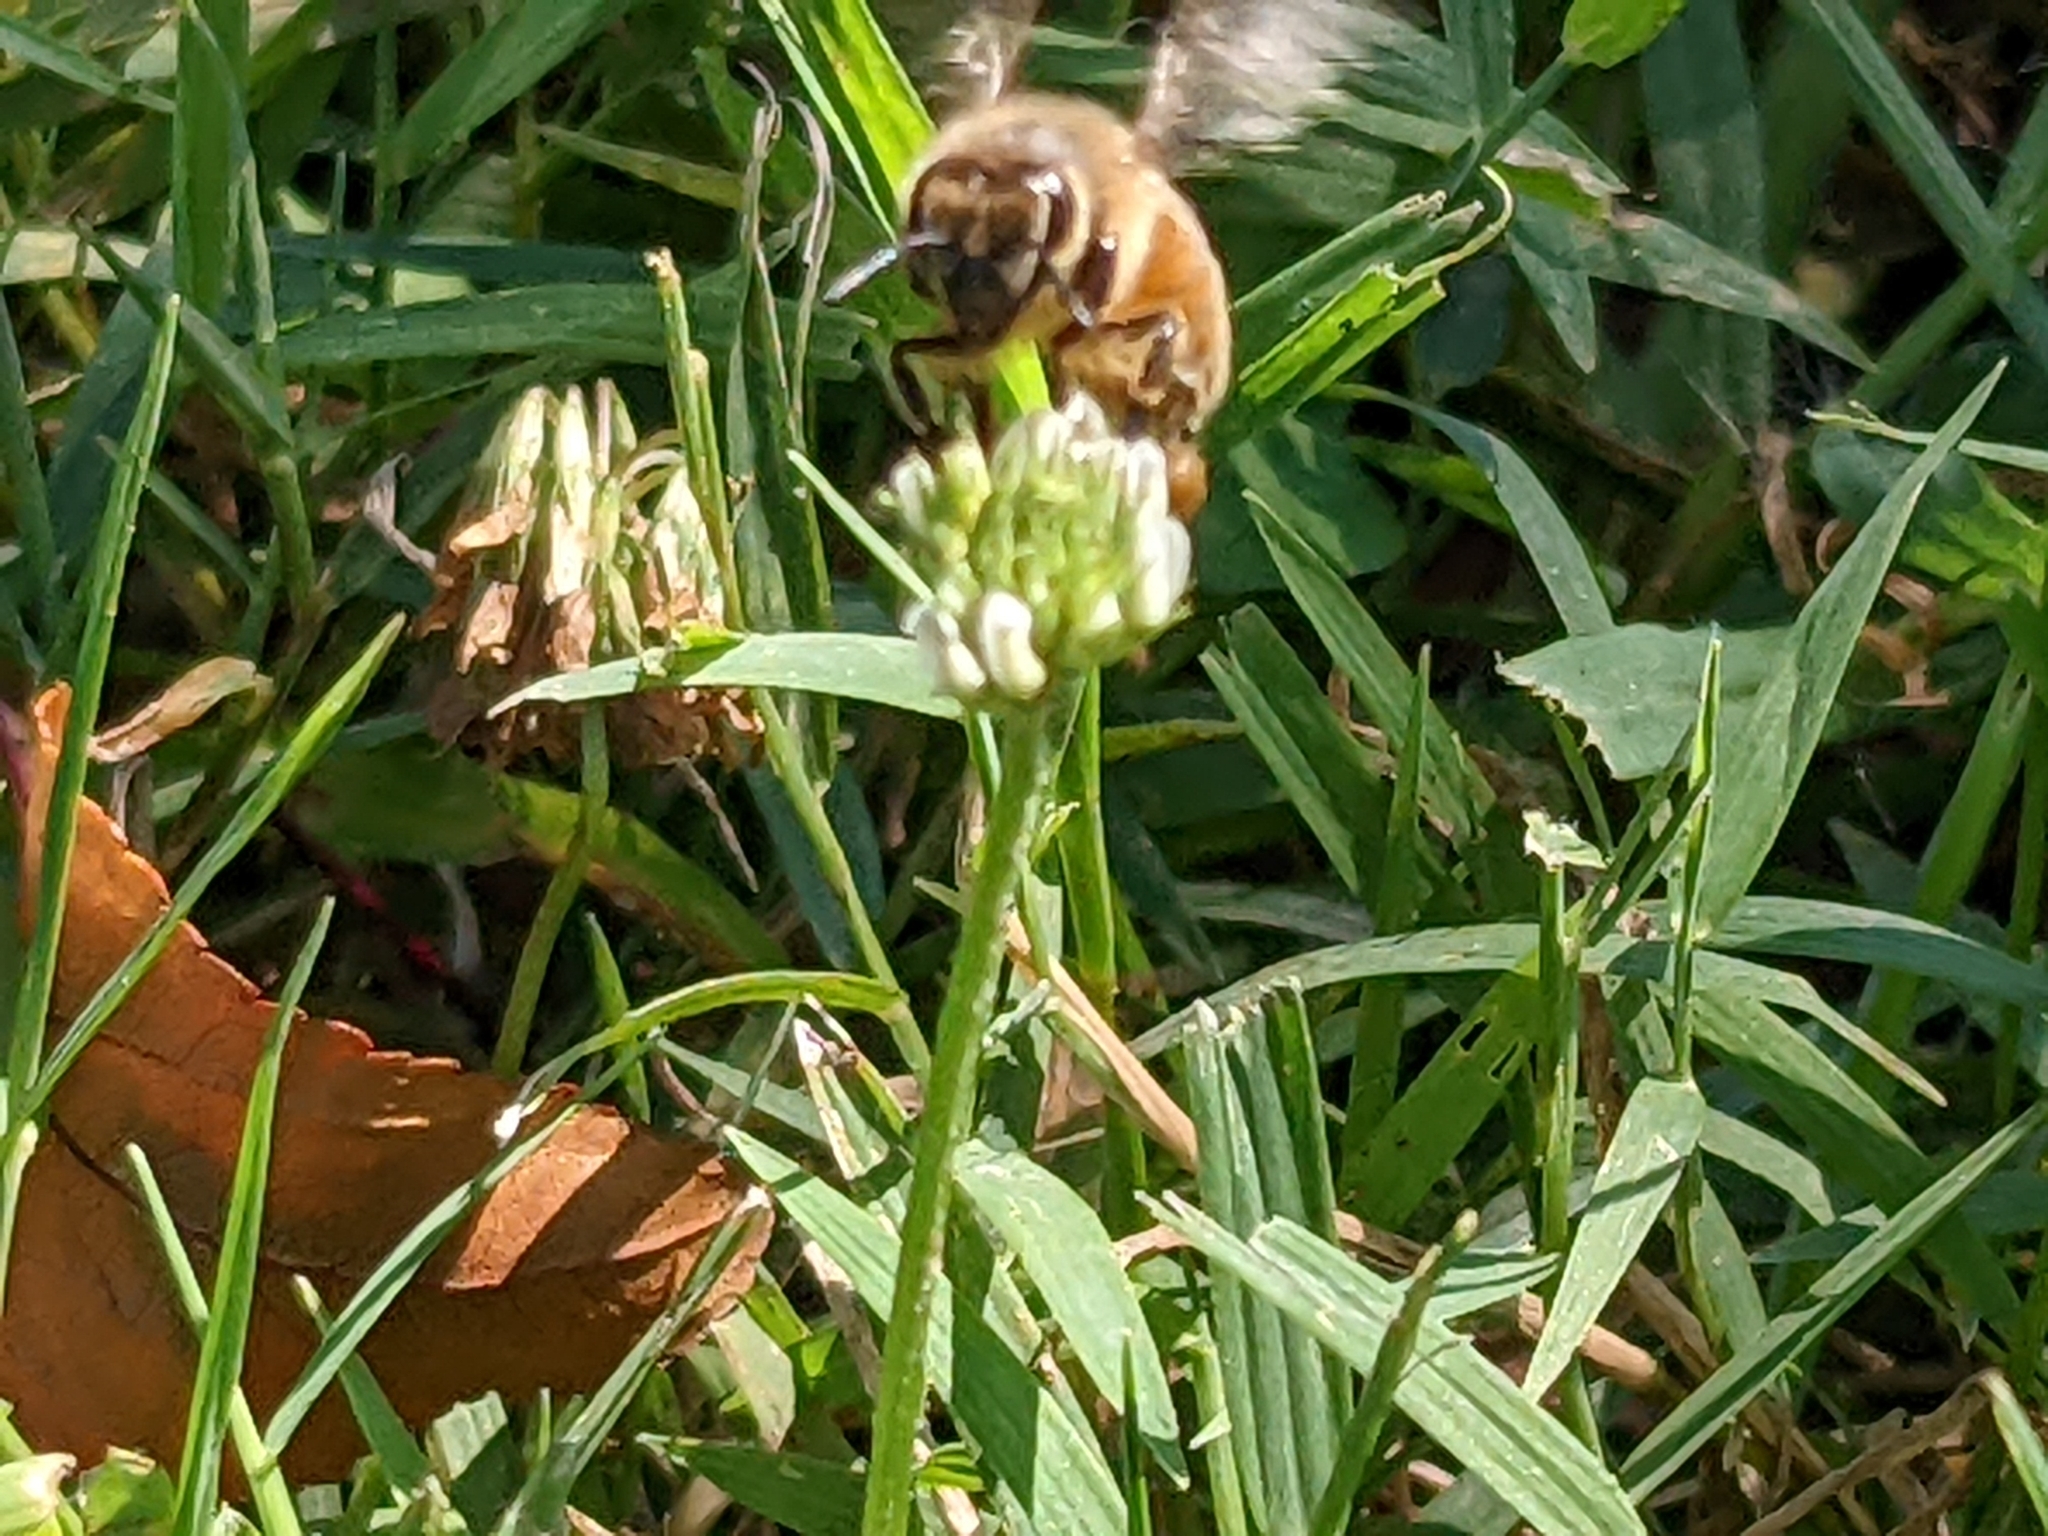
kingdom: Animalia
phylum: Arthropoda
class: Insecta
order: Hymenoptera
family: Apidae
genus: Apis
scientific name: Apis mellifera
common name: Honey bee
